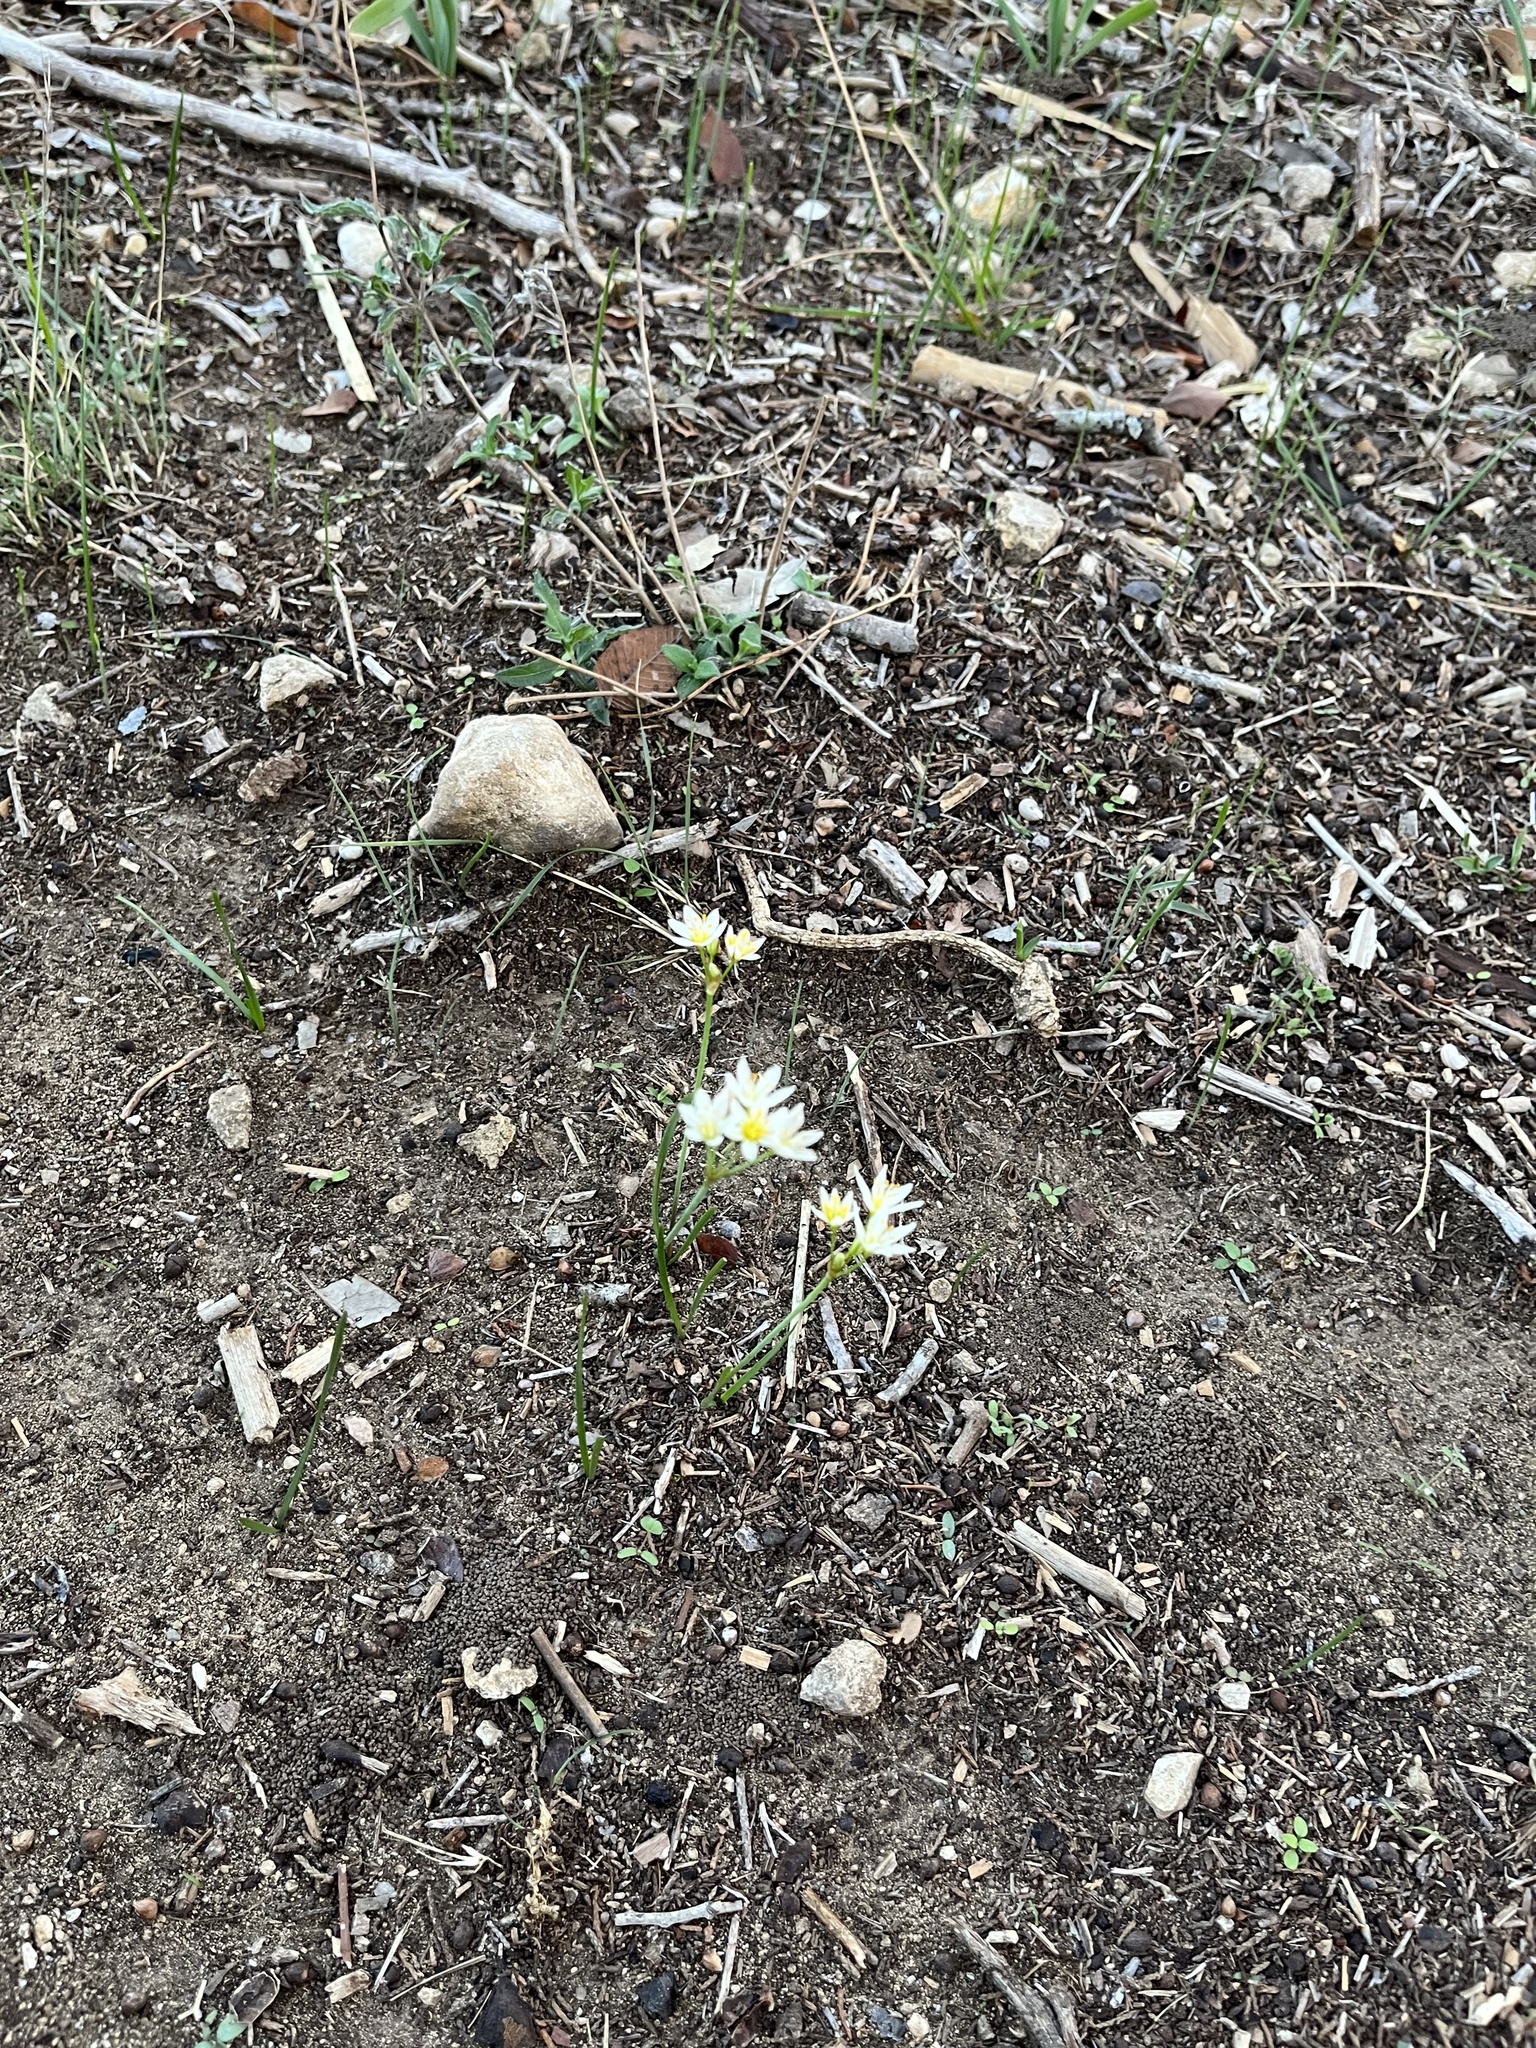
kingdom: Plantae
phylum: Tracheophyta
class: Liliopsida
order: Asparagales
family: Amaryllidaceae
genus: Nothoscordum
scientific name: Nothoscordum bivalve
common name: Crow-poison
